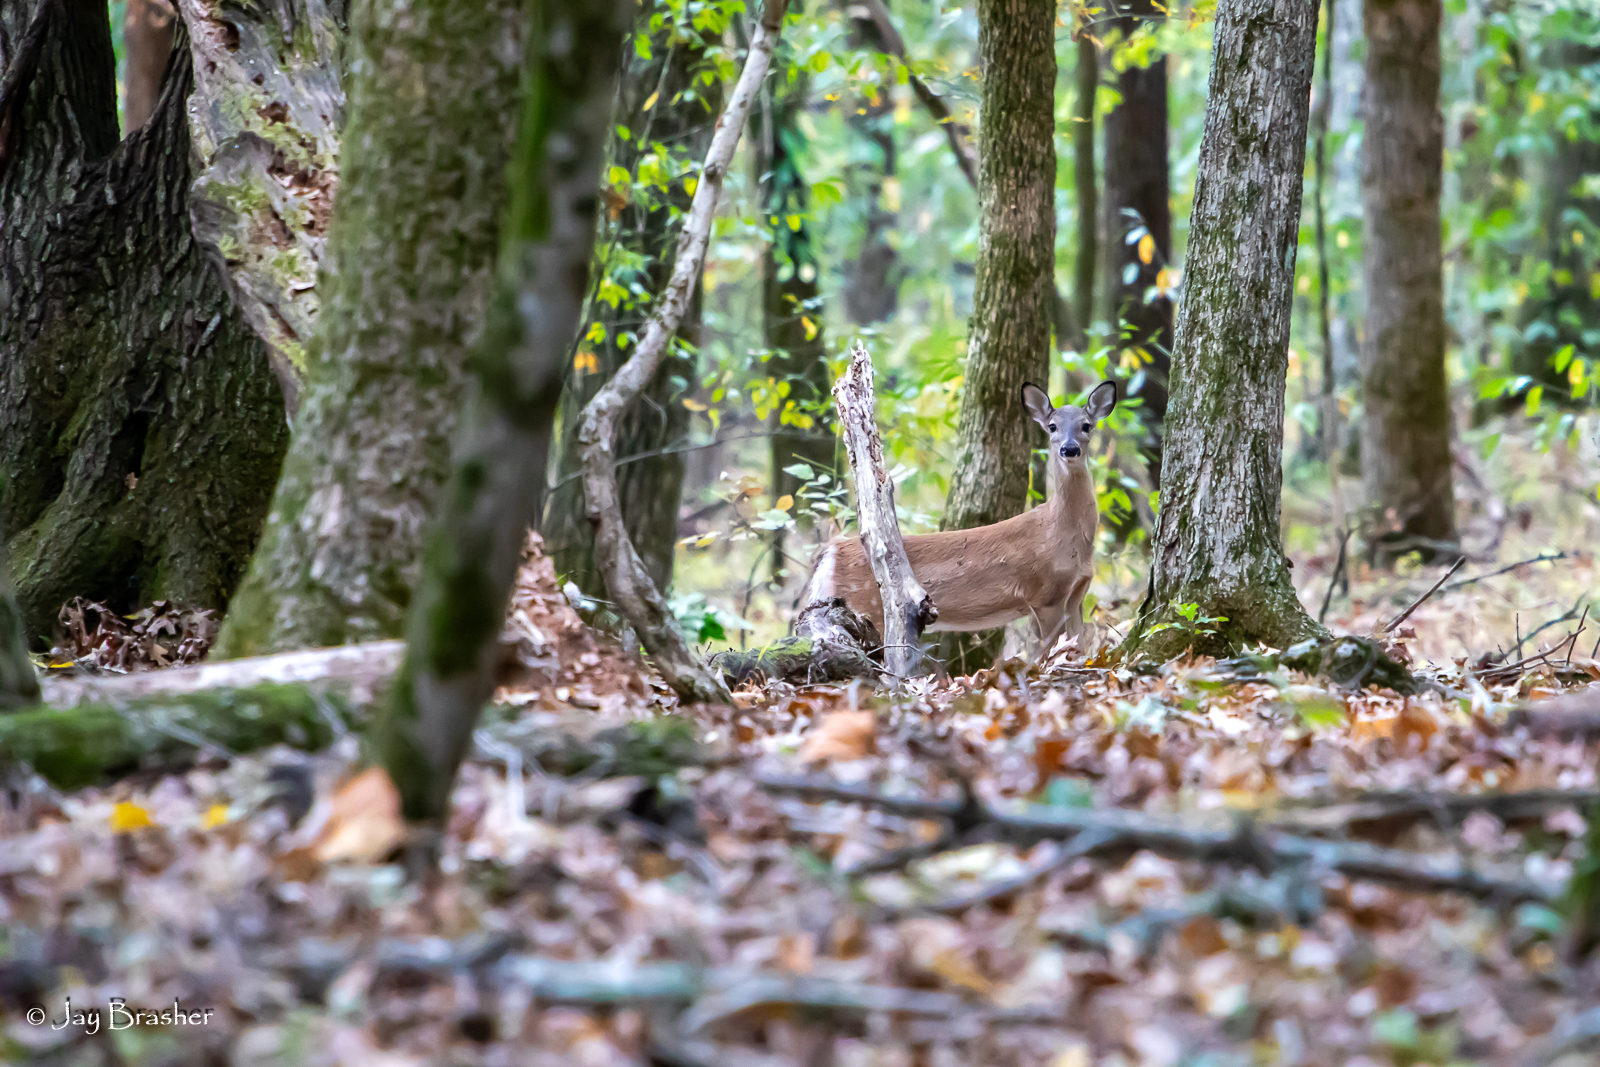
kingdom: Animalia
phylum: Chordata
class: Mammalia
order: Artiodactyla
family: Cervidae
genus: Odocoileus
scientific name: Odocoileus virginianus
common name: White-tailed deer
